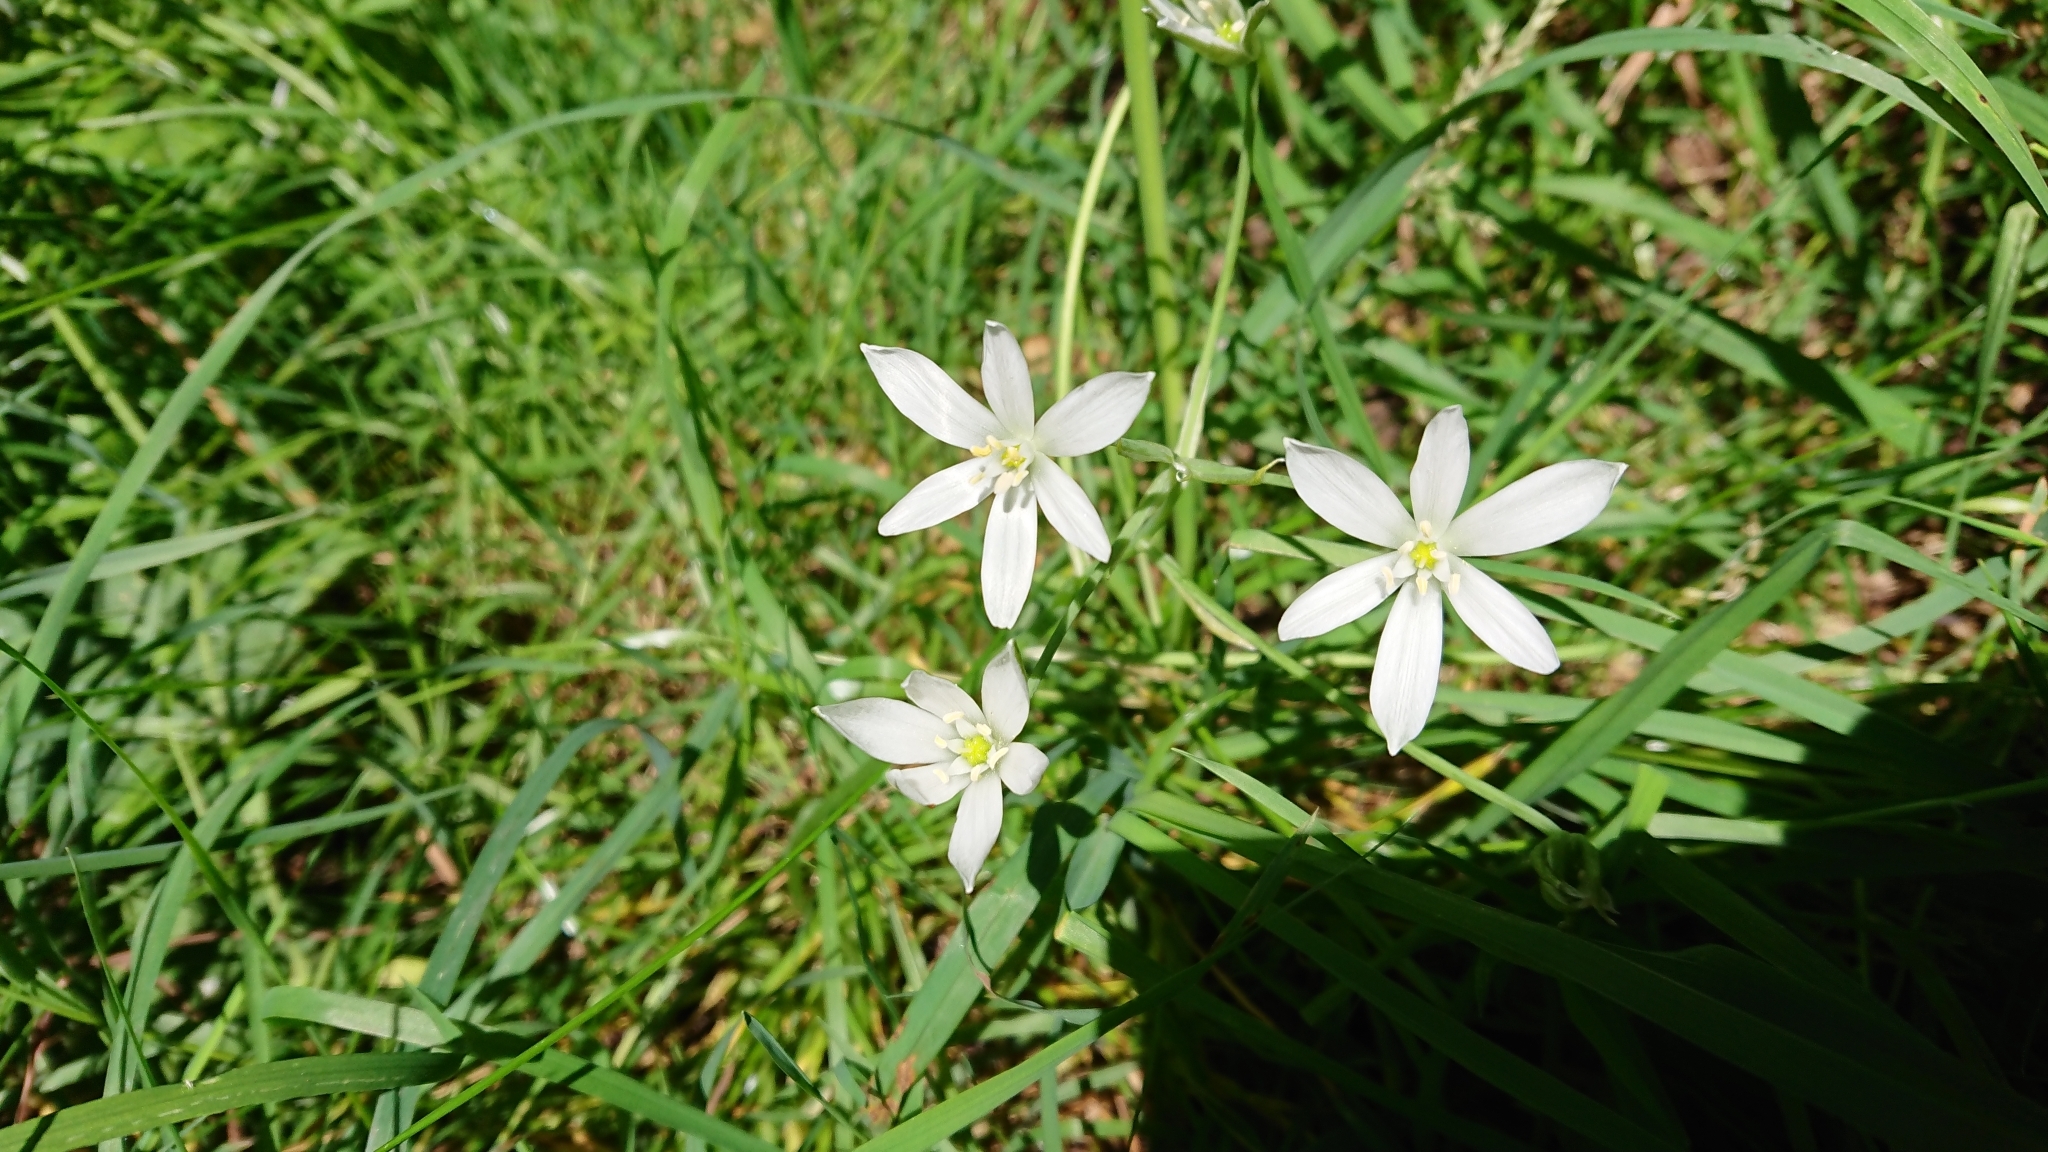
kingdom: Plantae
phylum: Tracheophyta
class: Liliopsida
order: Asparagales
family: Asparagaceae
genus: Ornithogalum
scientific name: Ornithogalum umbellatum
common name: Garden star-of-bethlehem
